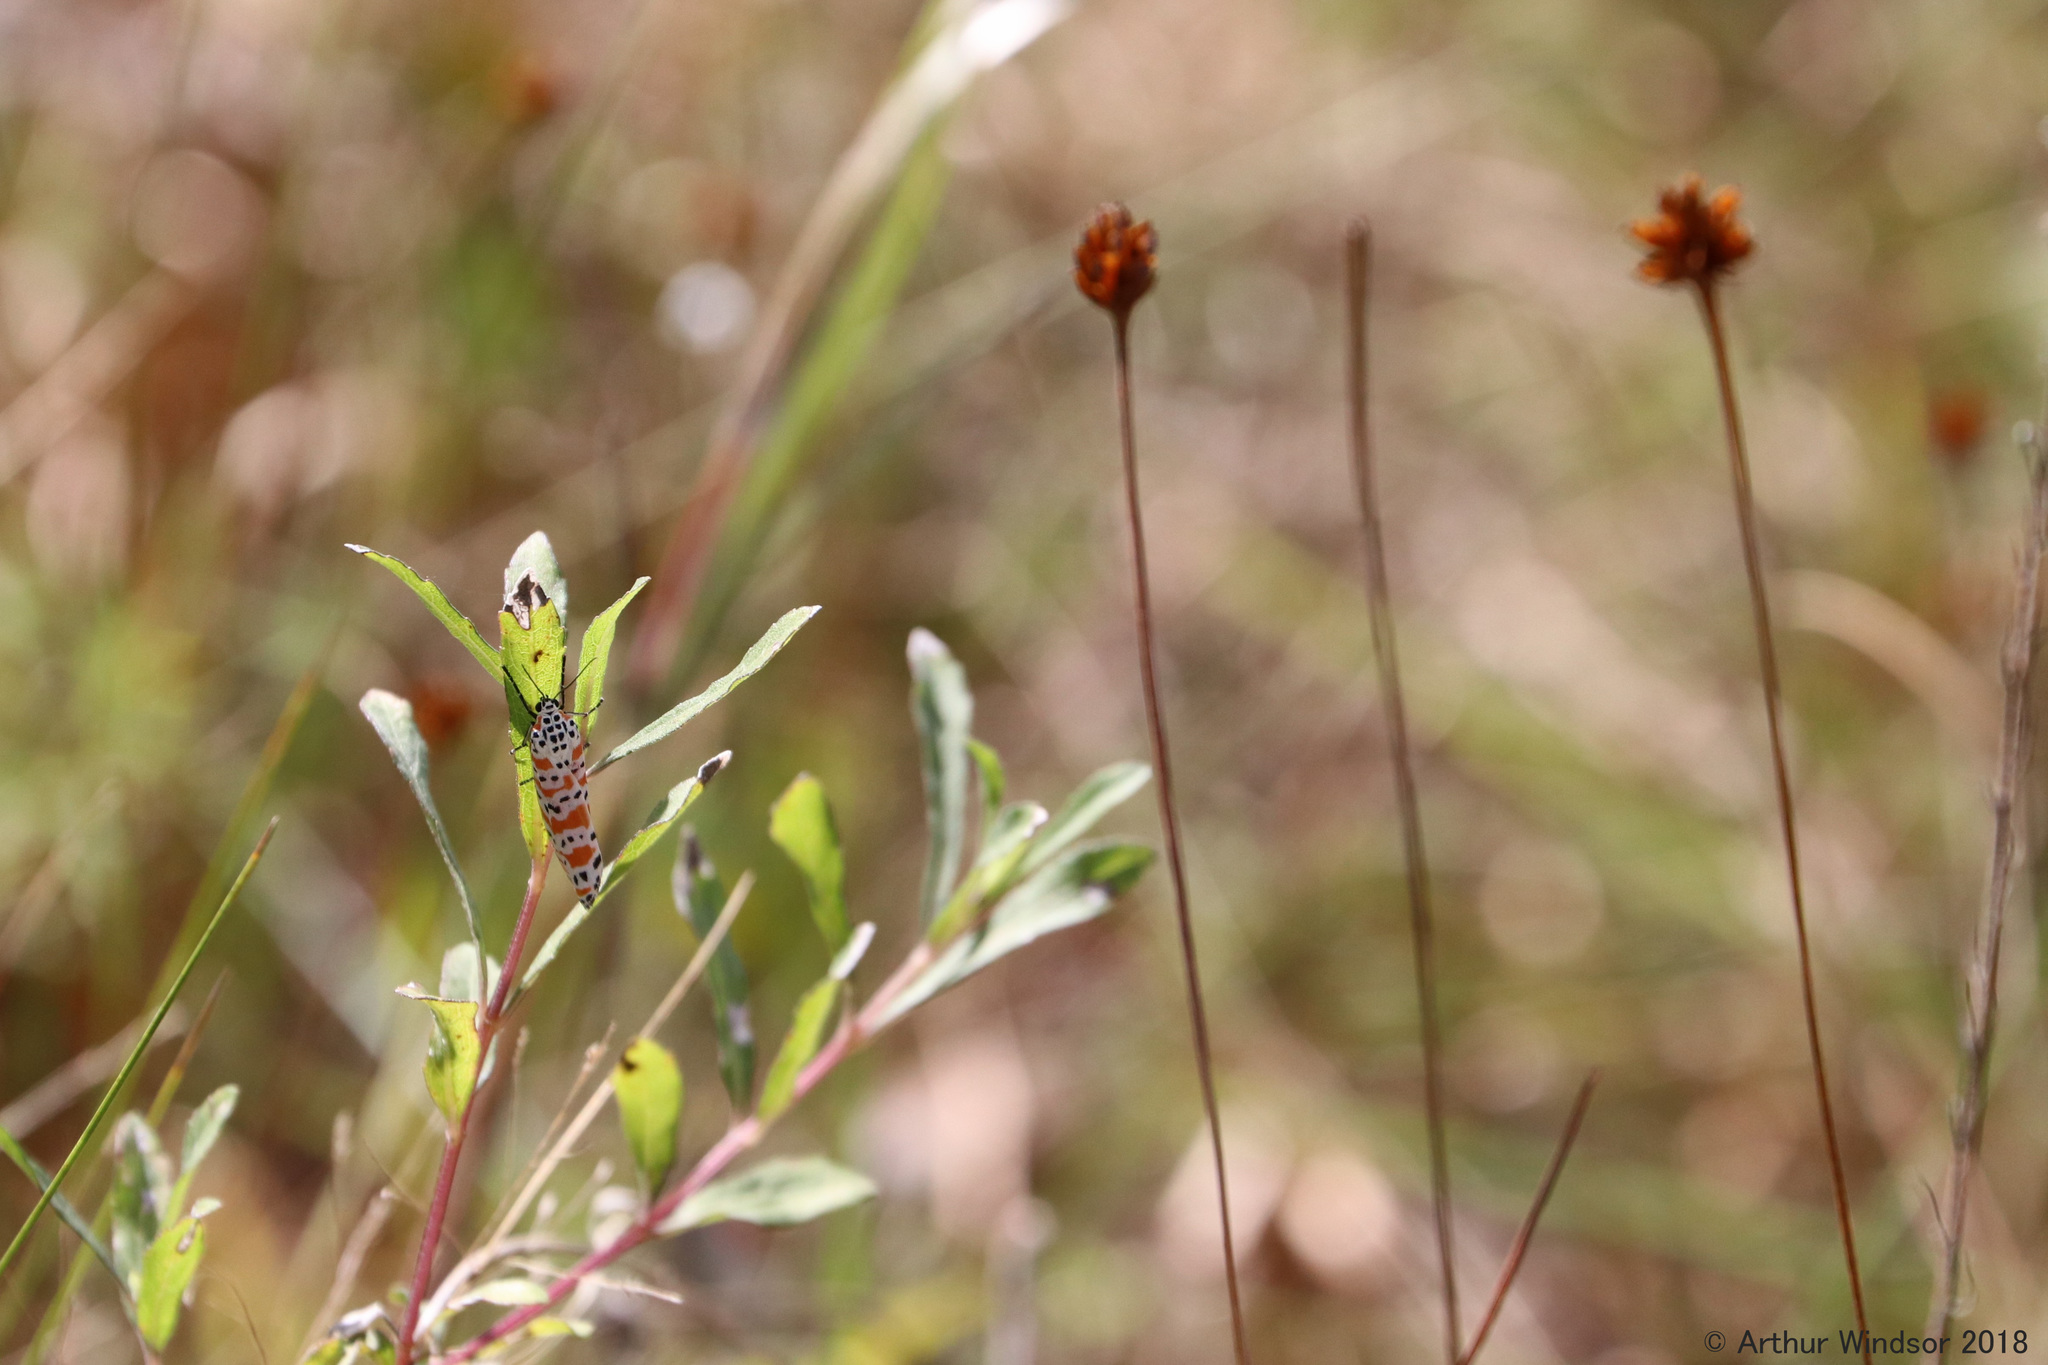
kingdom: Animalia
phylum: Arthropoda
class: Insecta
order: Lepidoptera
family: Erebidae
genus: Utetheisa
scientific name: Utetheisa ornatrix
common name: Beautiful utetheisa
